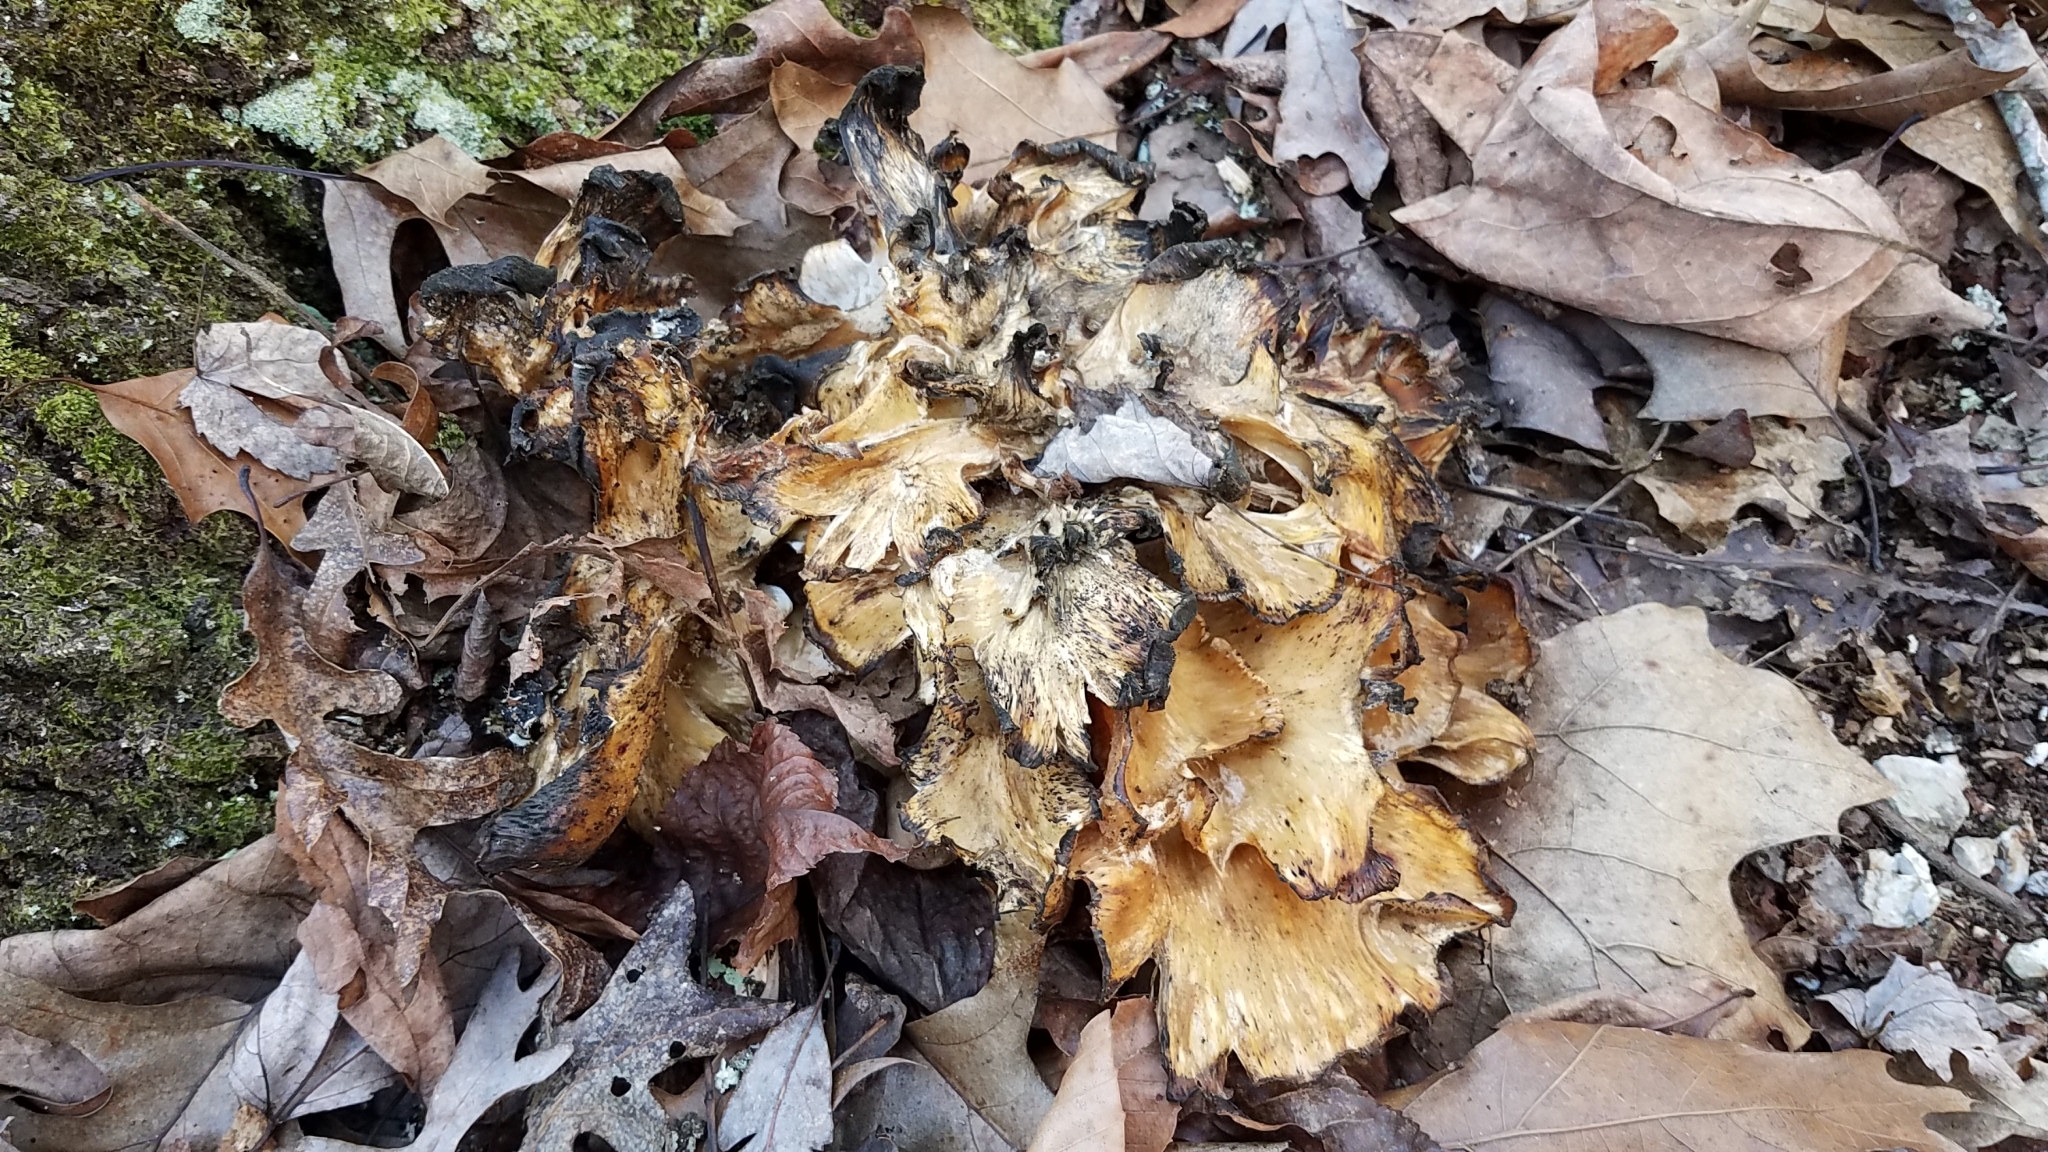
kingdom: Fungi
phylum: Basidiomycota
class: Agaricomycetes
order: Polyporales
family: Grifolaceae
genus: Grifola
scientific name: Grifola frondosa
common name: Hen of the woods
